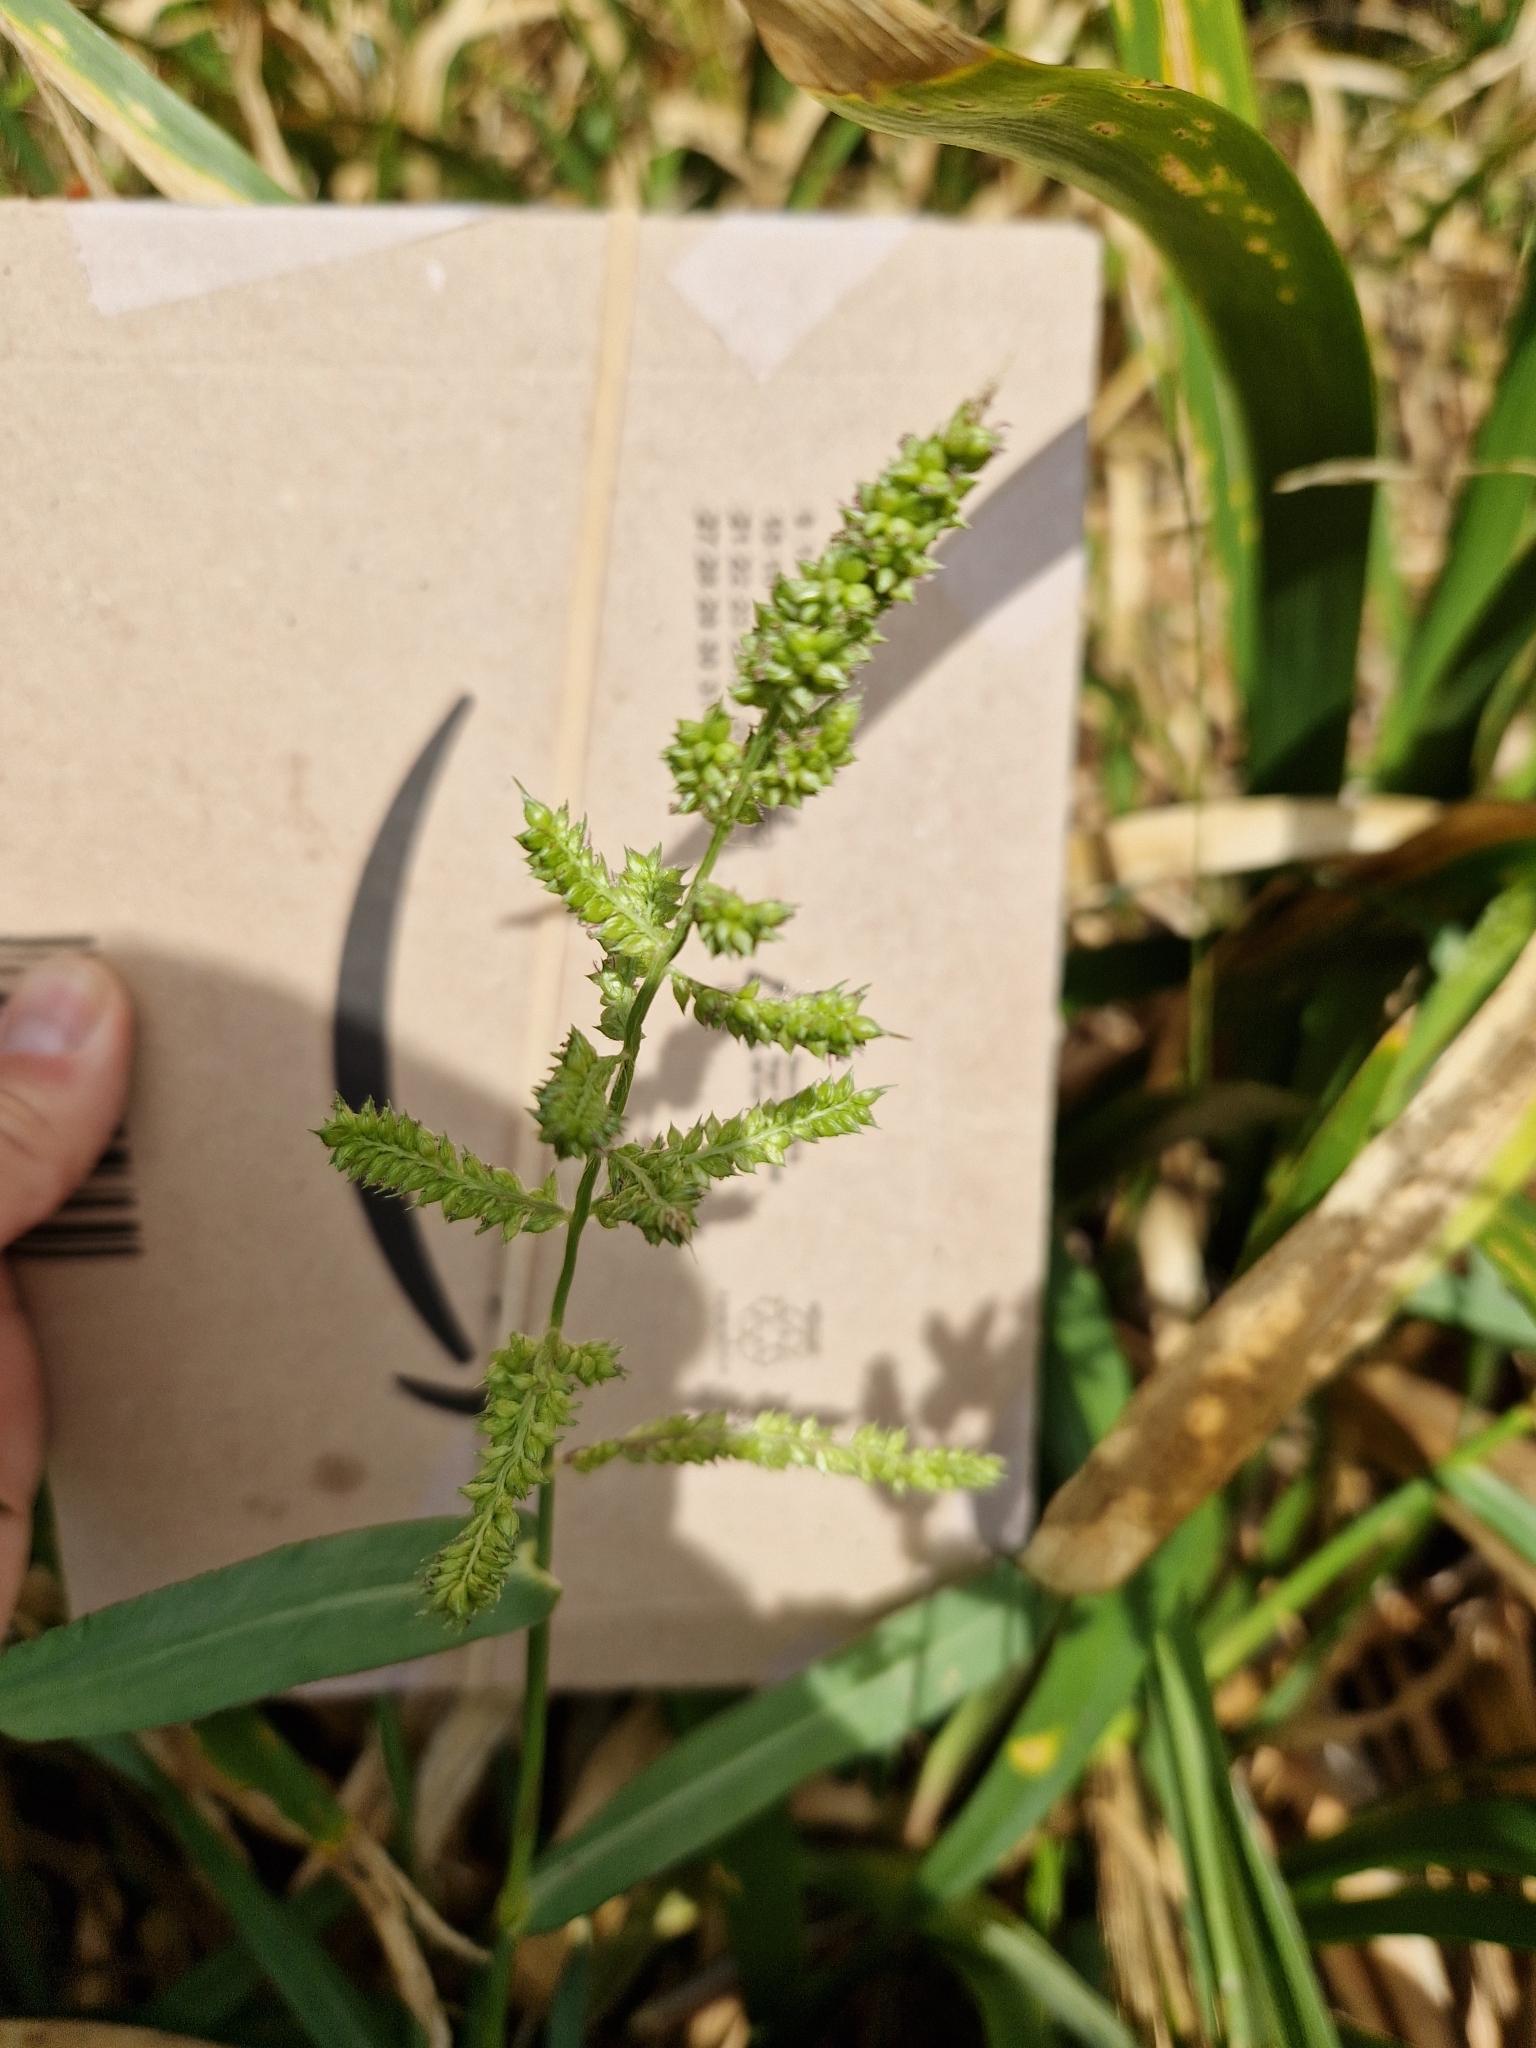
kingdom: Plantae
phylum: Tracheophyta
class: Liliopsida
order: Poales
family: Poaceae
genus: Echinochloa
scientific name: Echinochloa crus-galli
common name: Cockspur
